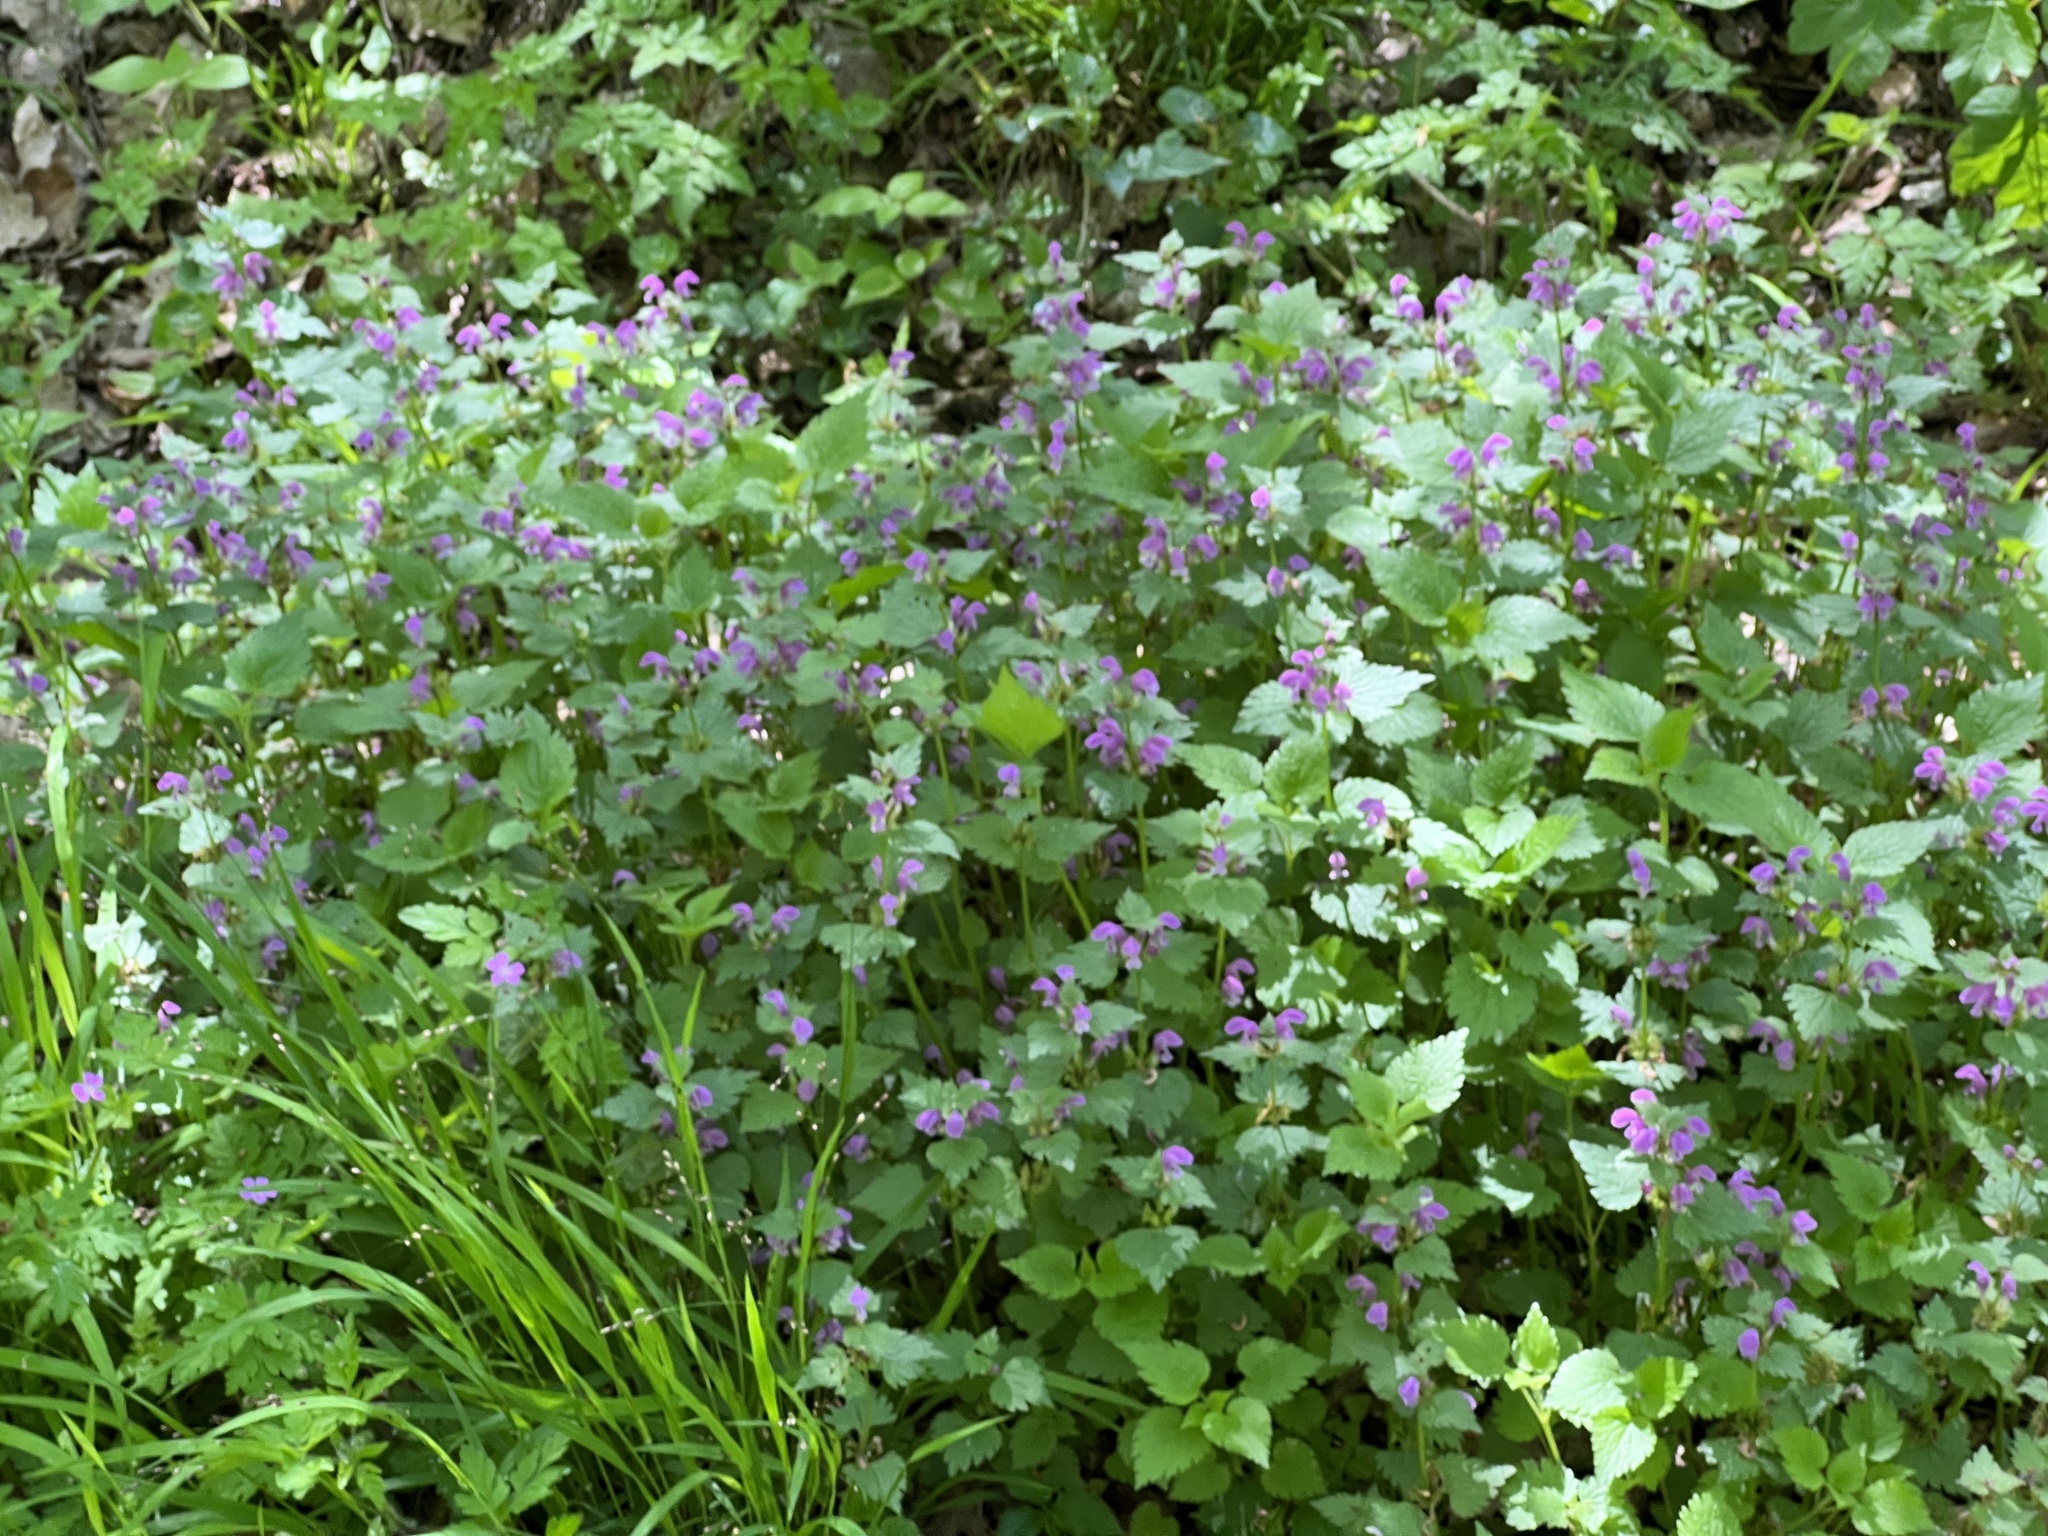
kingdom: Plantae
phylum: Tracheophyta
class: Magnoliopsida
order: Lamiales
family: Lamiaceae
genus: Lamium
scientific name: Lamium maculatum
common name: Spotted dead-nettle
